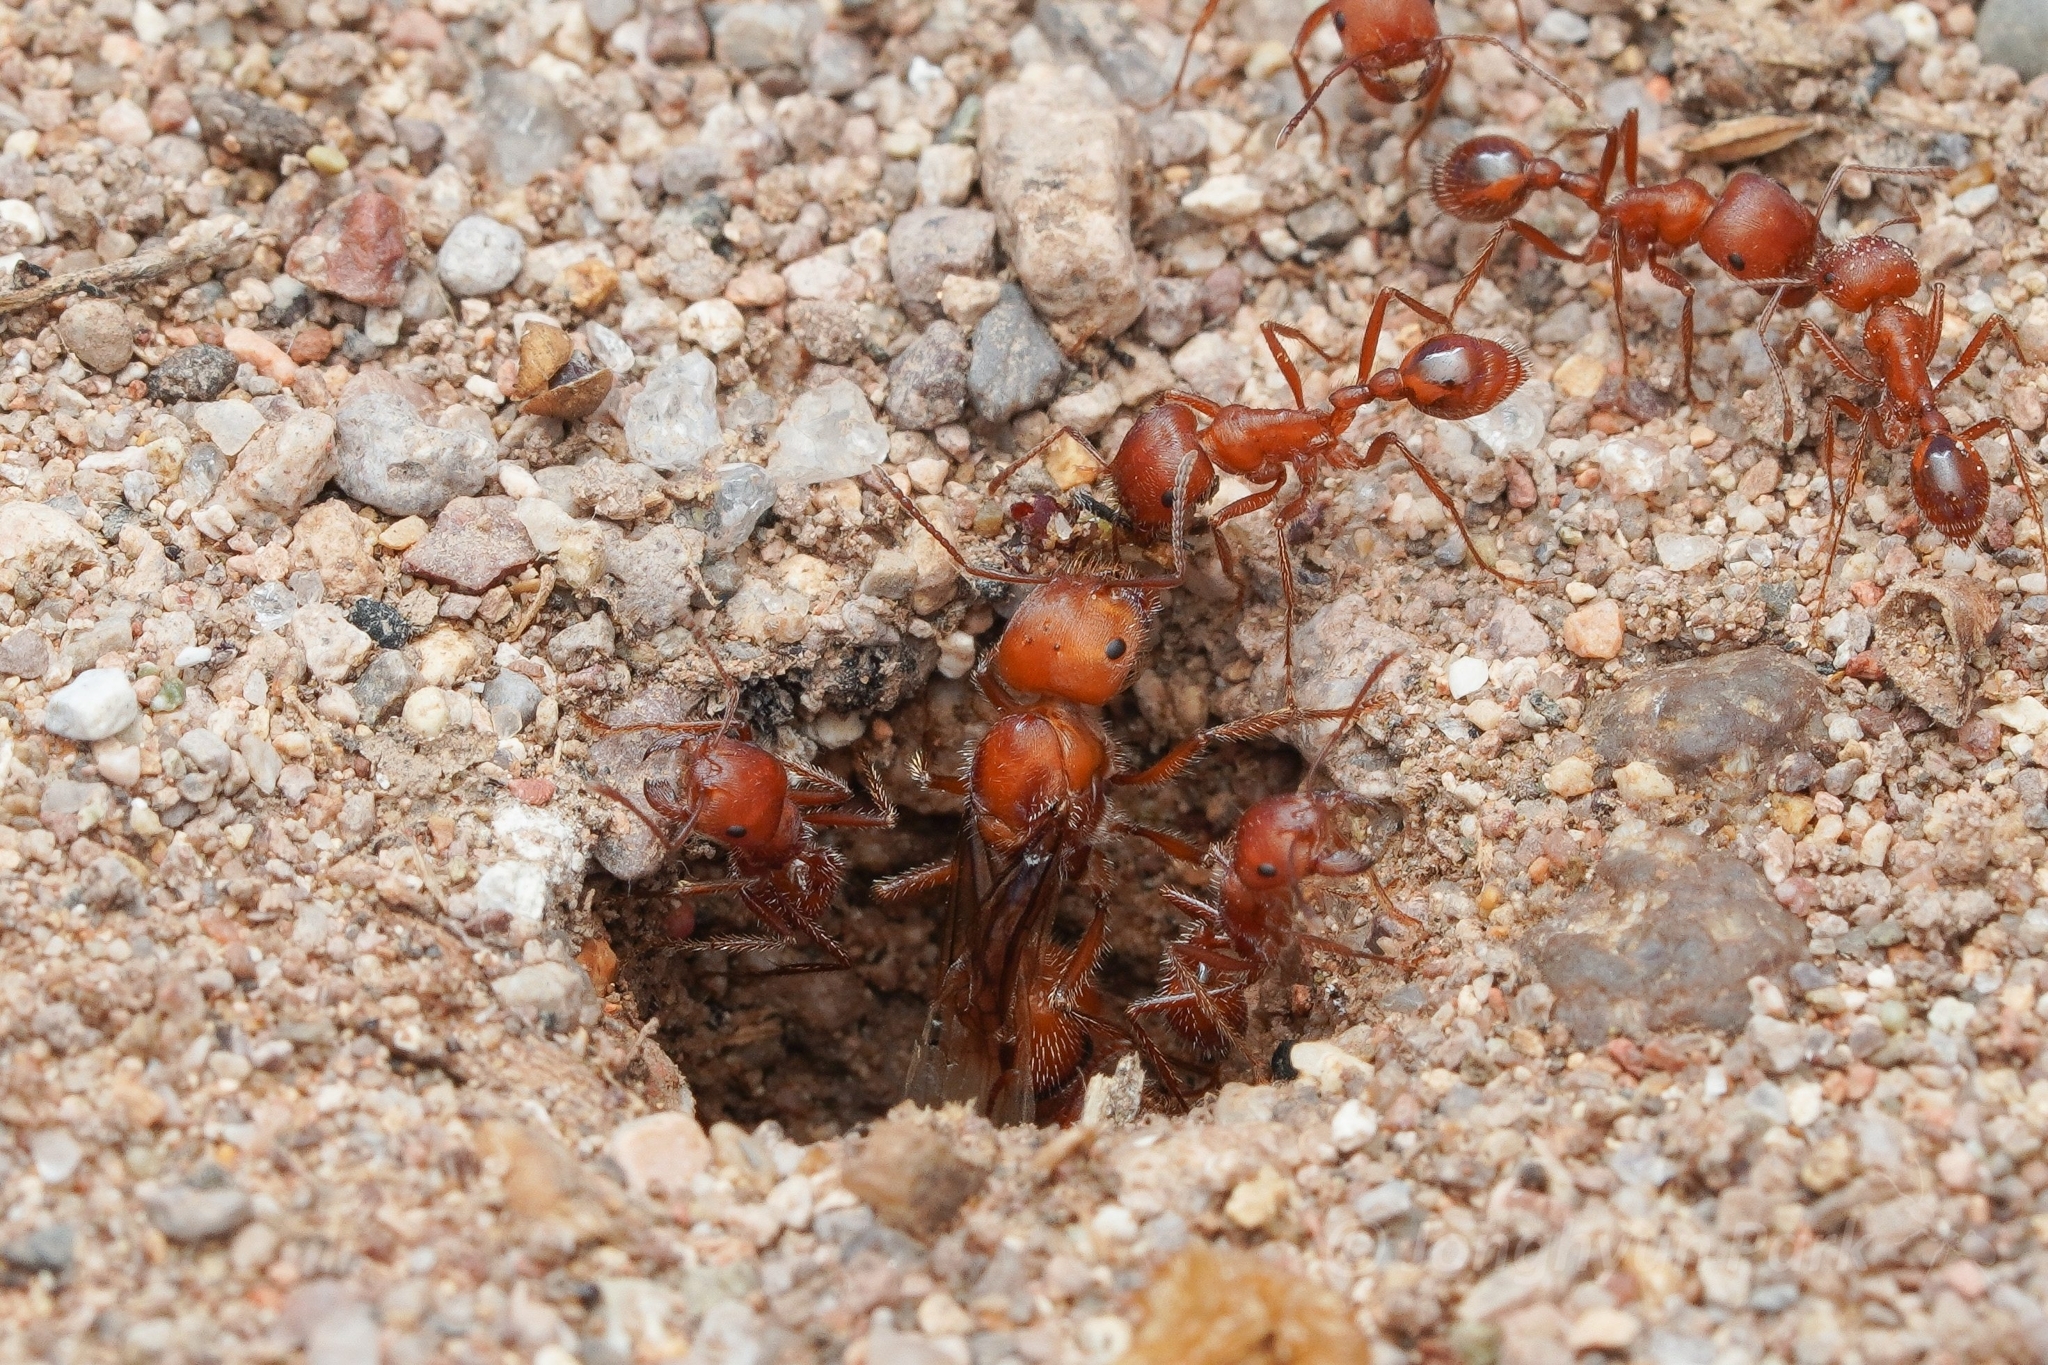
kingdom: Animalia
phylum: Arthropoda
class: Insecta
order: Hymenoptera
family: Formicidae
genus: Pogonomyrmex
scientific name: Pogonomyrmex maricopa
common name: Maricopa harvester ant
